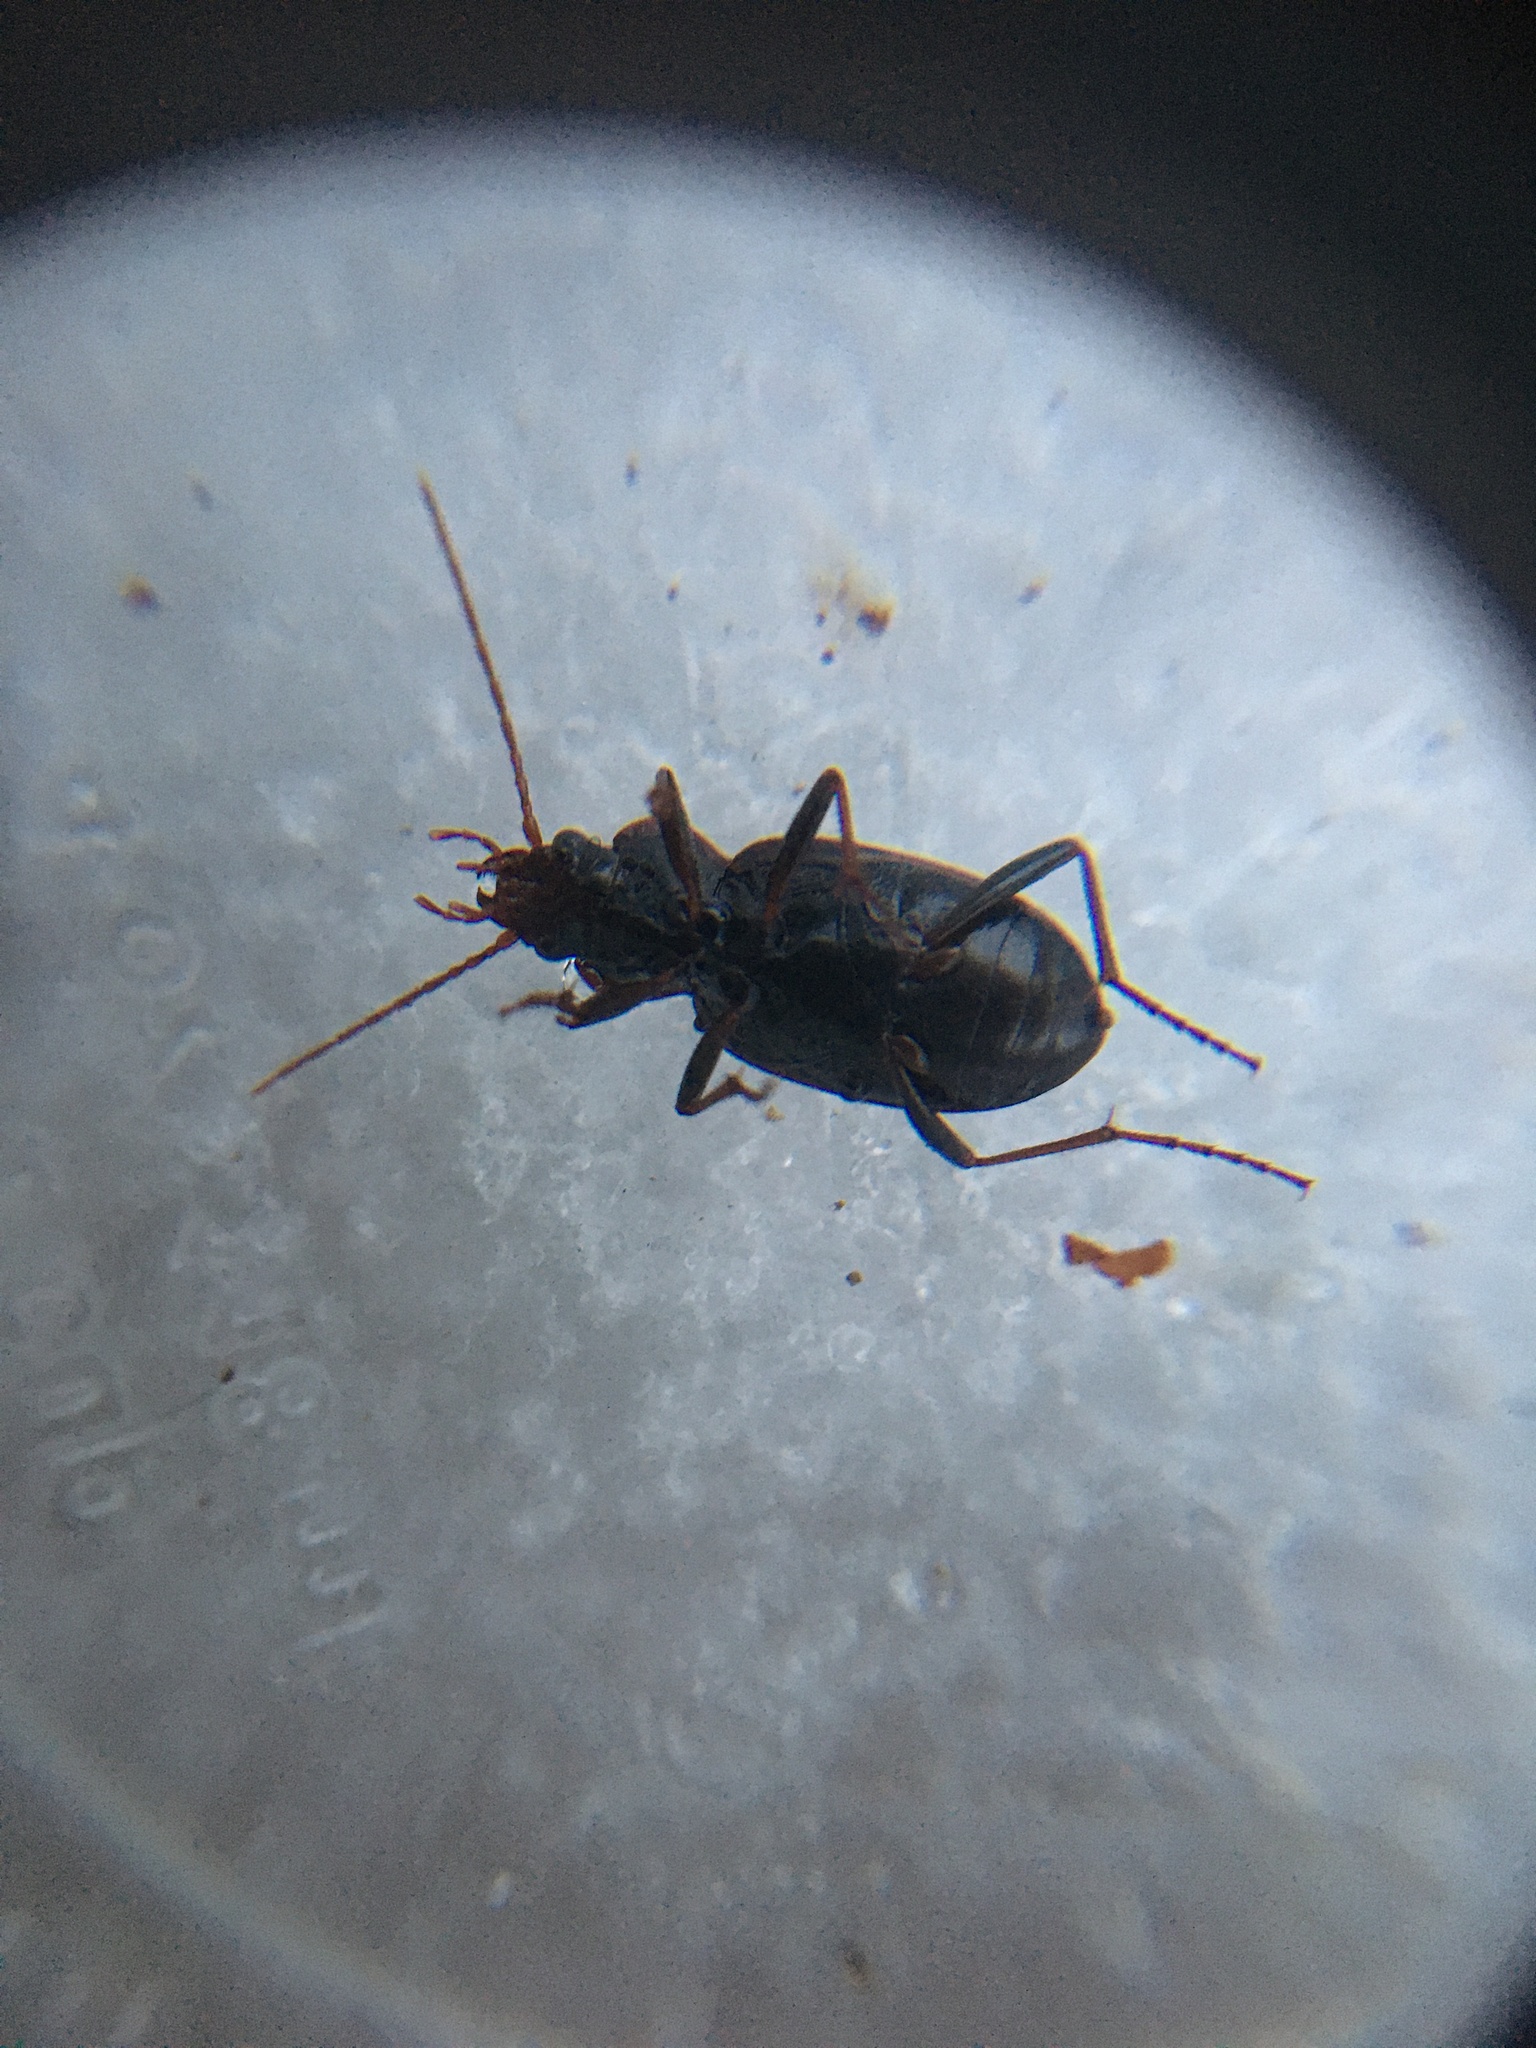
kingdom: Animalia
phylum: Arthropoda
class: Insecta
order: Coleoptera
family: Carabidae
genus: Nebria
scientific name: Nebria brevicollis
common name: Short-necked gazelle beetle
